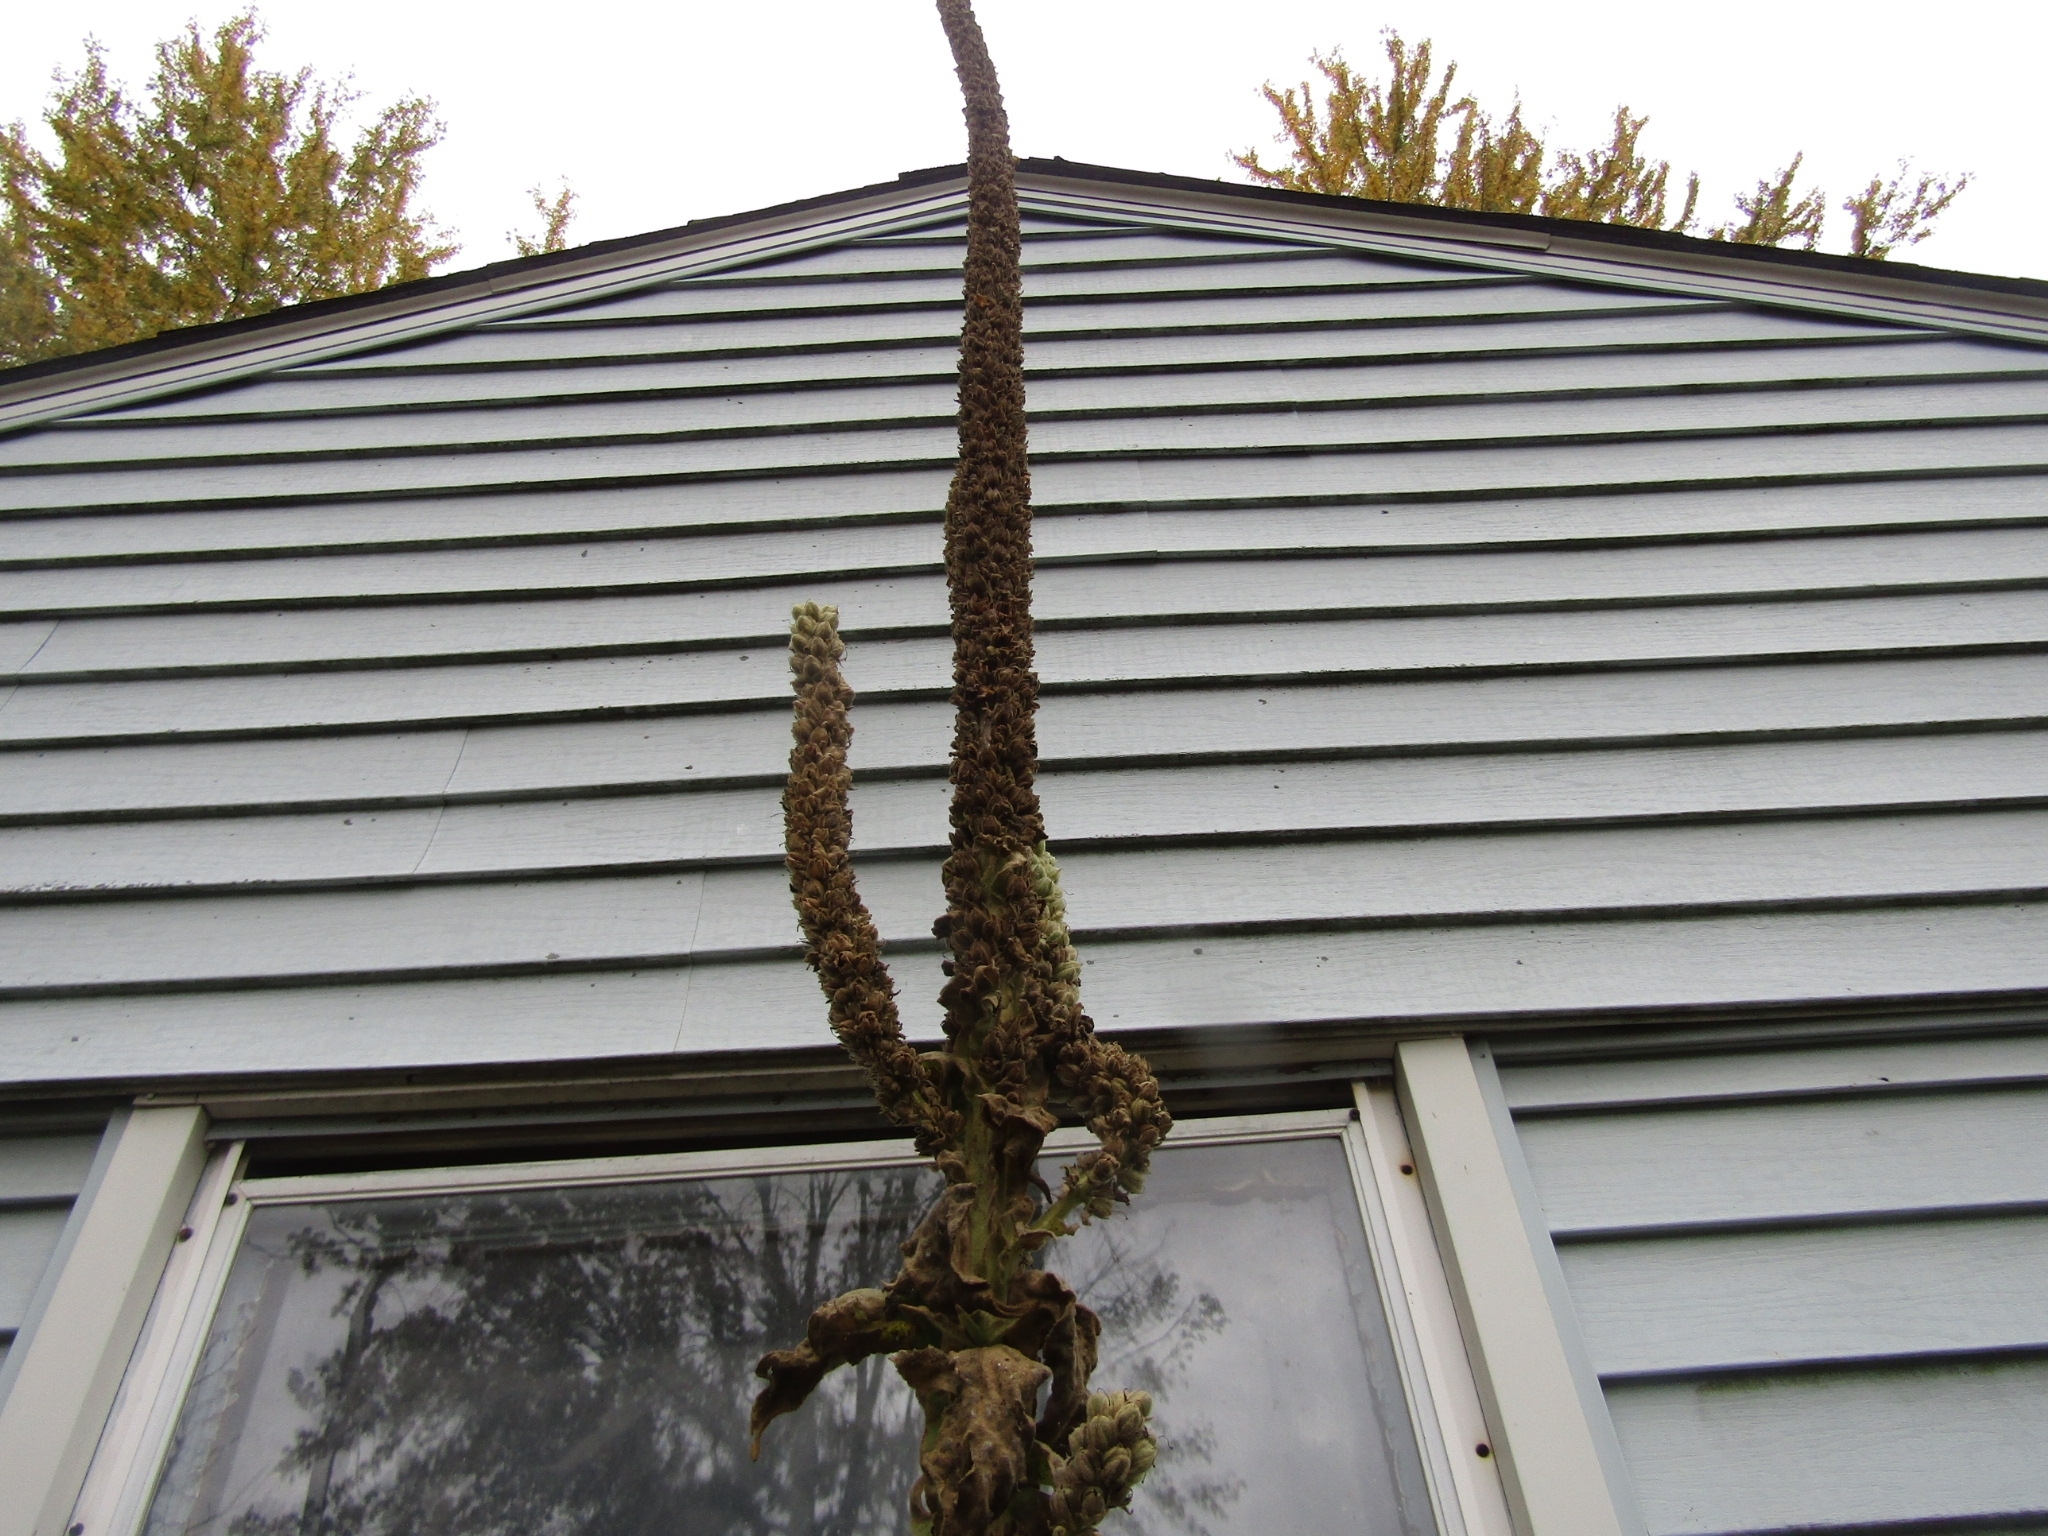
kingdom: Plantae
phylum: Tracheophyta
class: Magnoliopsida
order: Lamiales
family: Scrophulariaceae
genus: Verbascum
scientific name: Verbascum thapsus
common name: Common mullein
